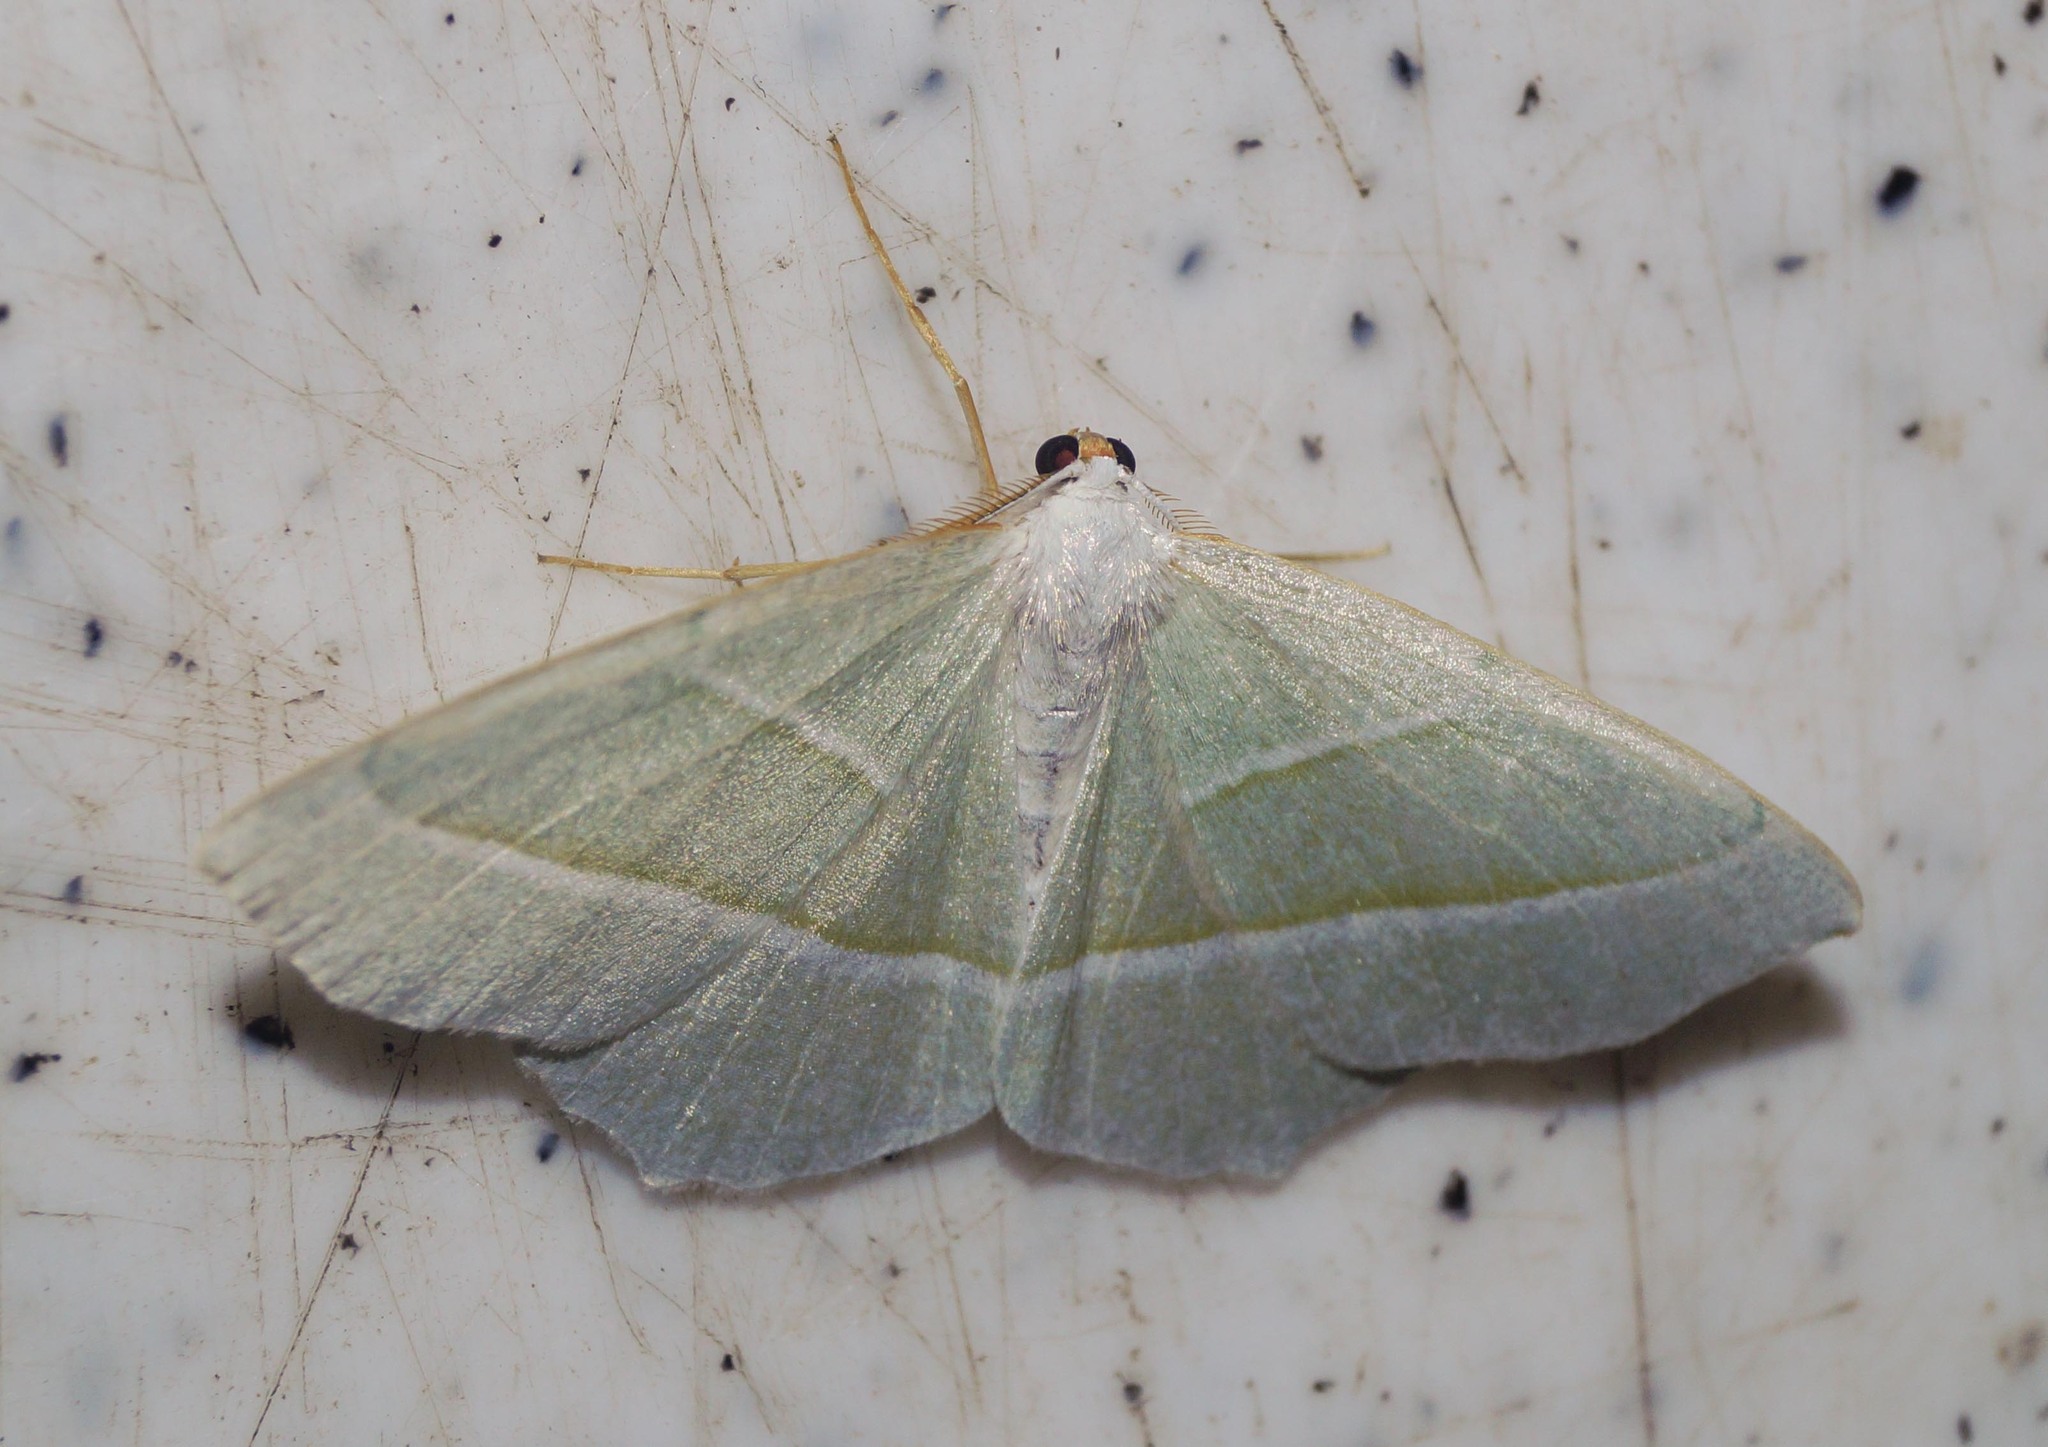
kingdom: Animalia
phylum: Arthropoda
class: Insecta
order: Lepidoptera
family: Geometridae
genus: Campaea
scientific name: Campaea margaritaria
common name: Light emerald
